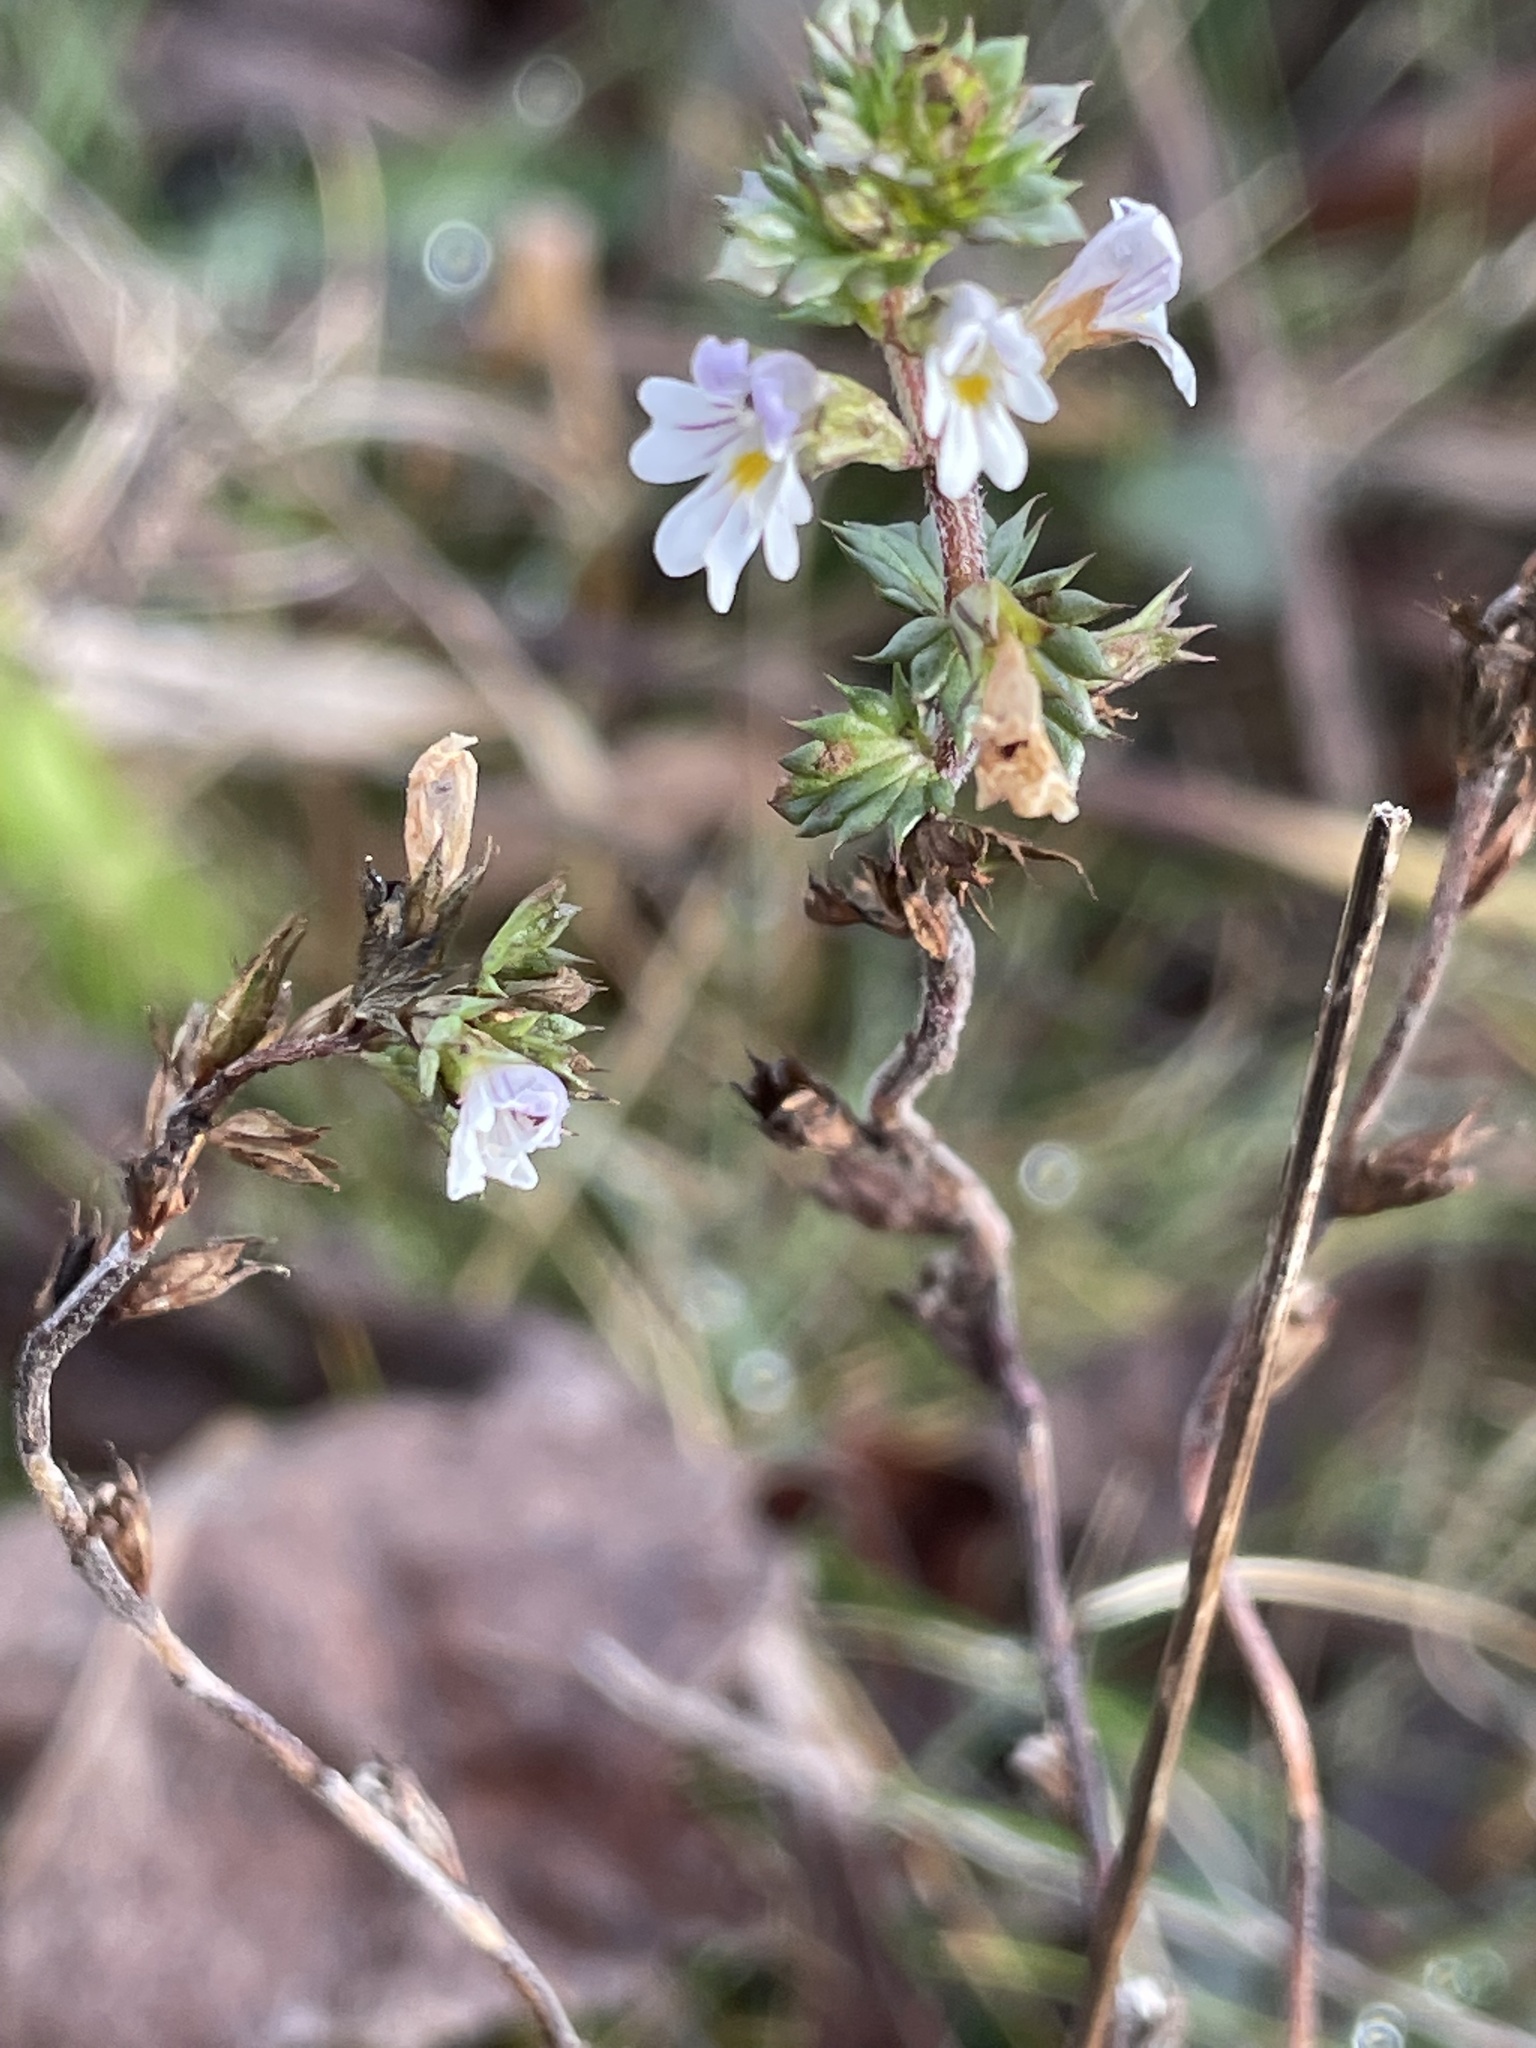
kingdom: Plantae
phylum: Tracheophyta
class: Magnoliopsida
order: Lamiales
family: Orobanchaceae
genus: Euphrasia
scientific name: Euphrasia nemorosa
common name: Common eyebright
